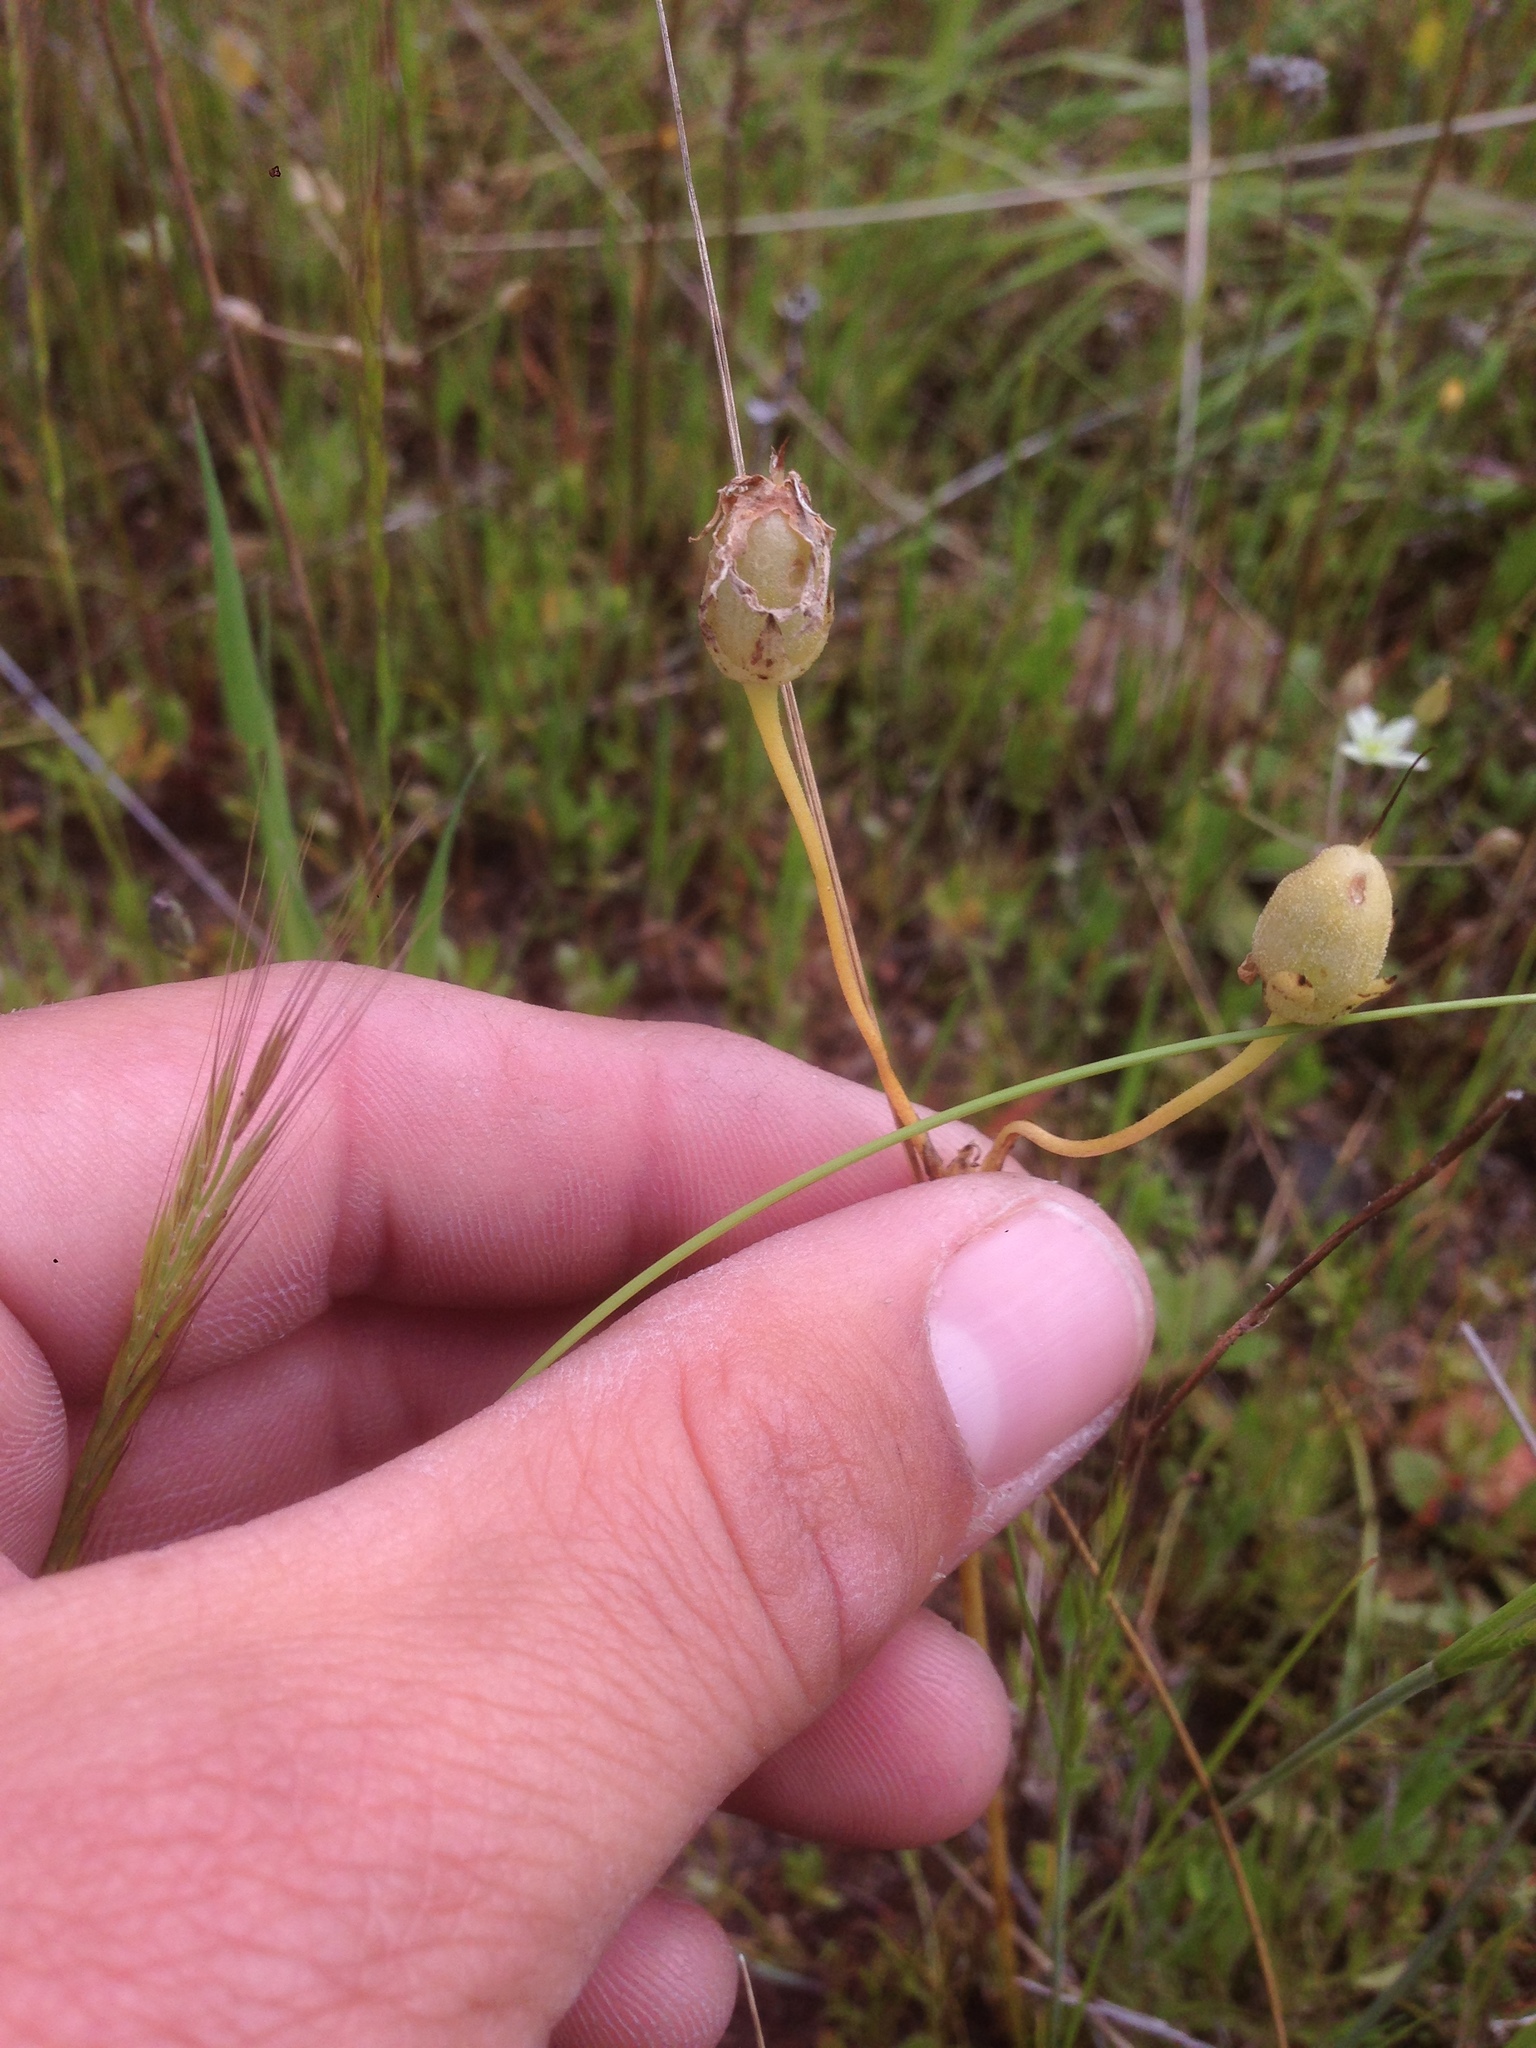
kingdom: Plantae
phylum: Tracheophyta
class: Magnoliopsida
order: Ericales
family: Primulaceae
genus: Dodecatheon
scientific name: Dodecatheon clevelandii
